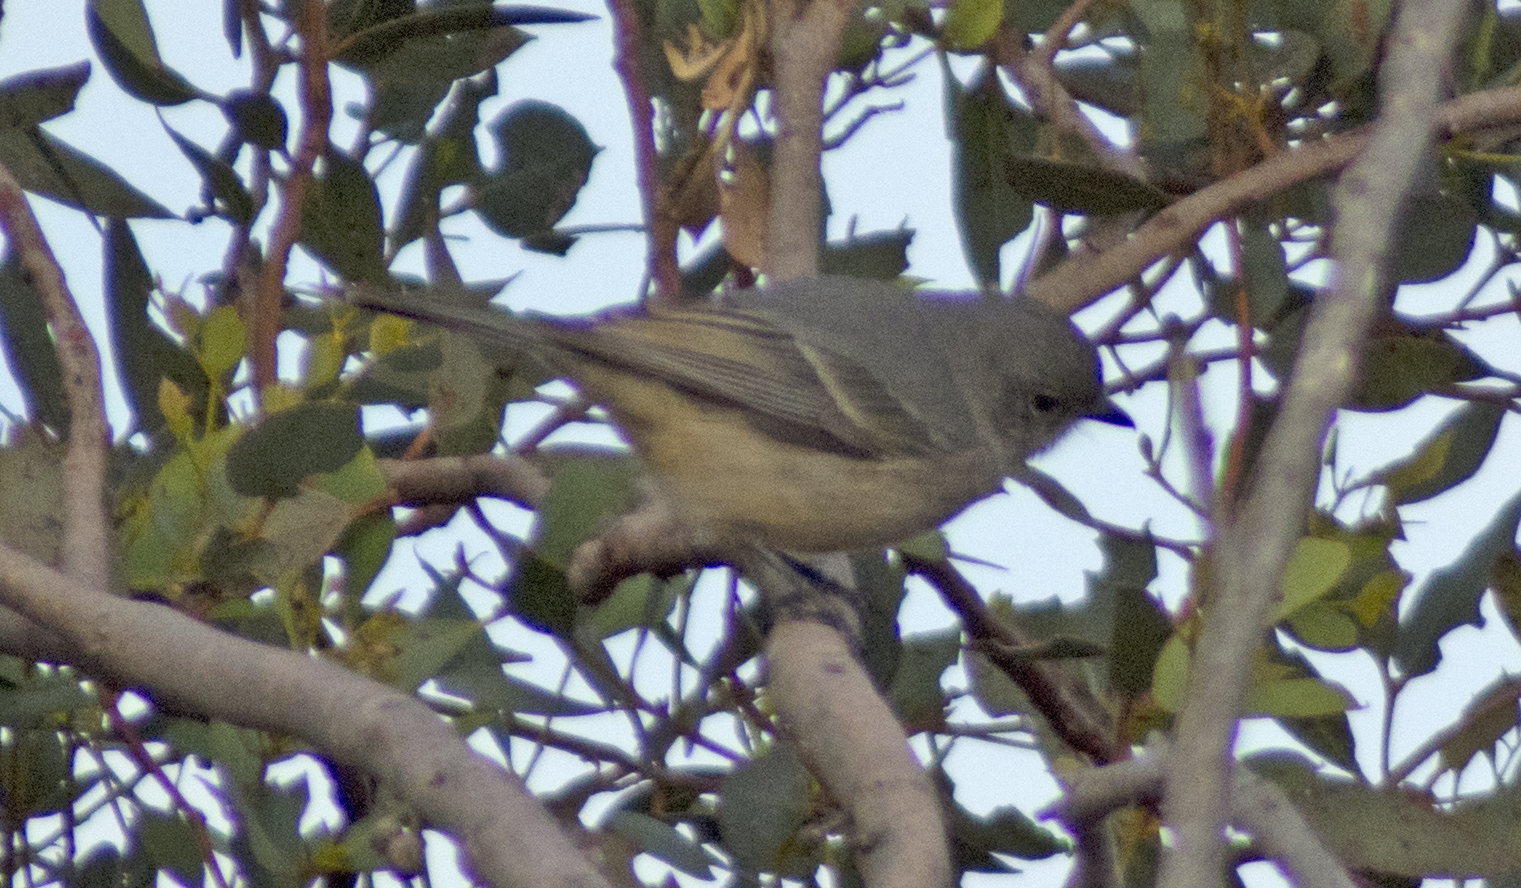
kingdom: Animalia
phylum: Chordata
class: Aves
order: Passeriformes
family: Pachycephalidae
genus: Pachycephala
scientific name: Pachycephala fuliginosa
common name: Western whistler
